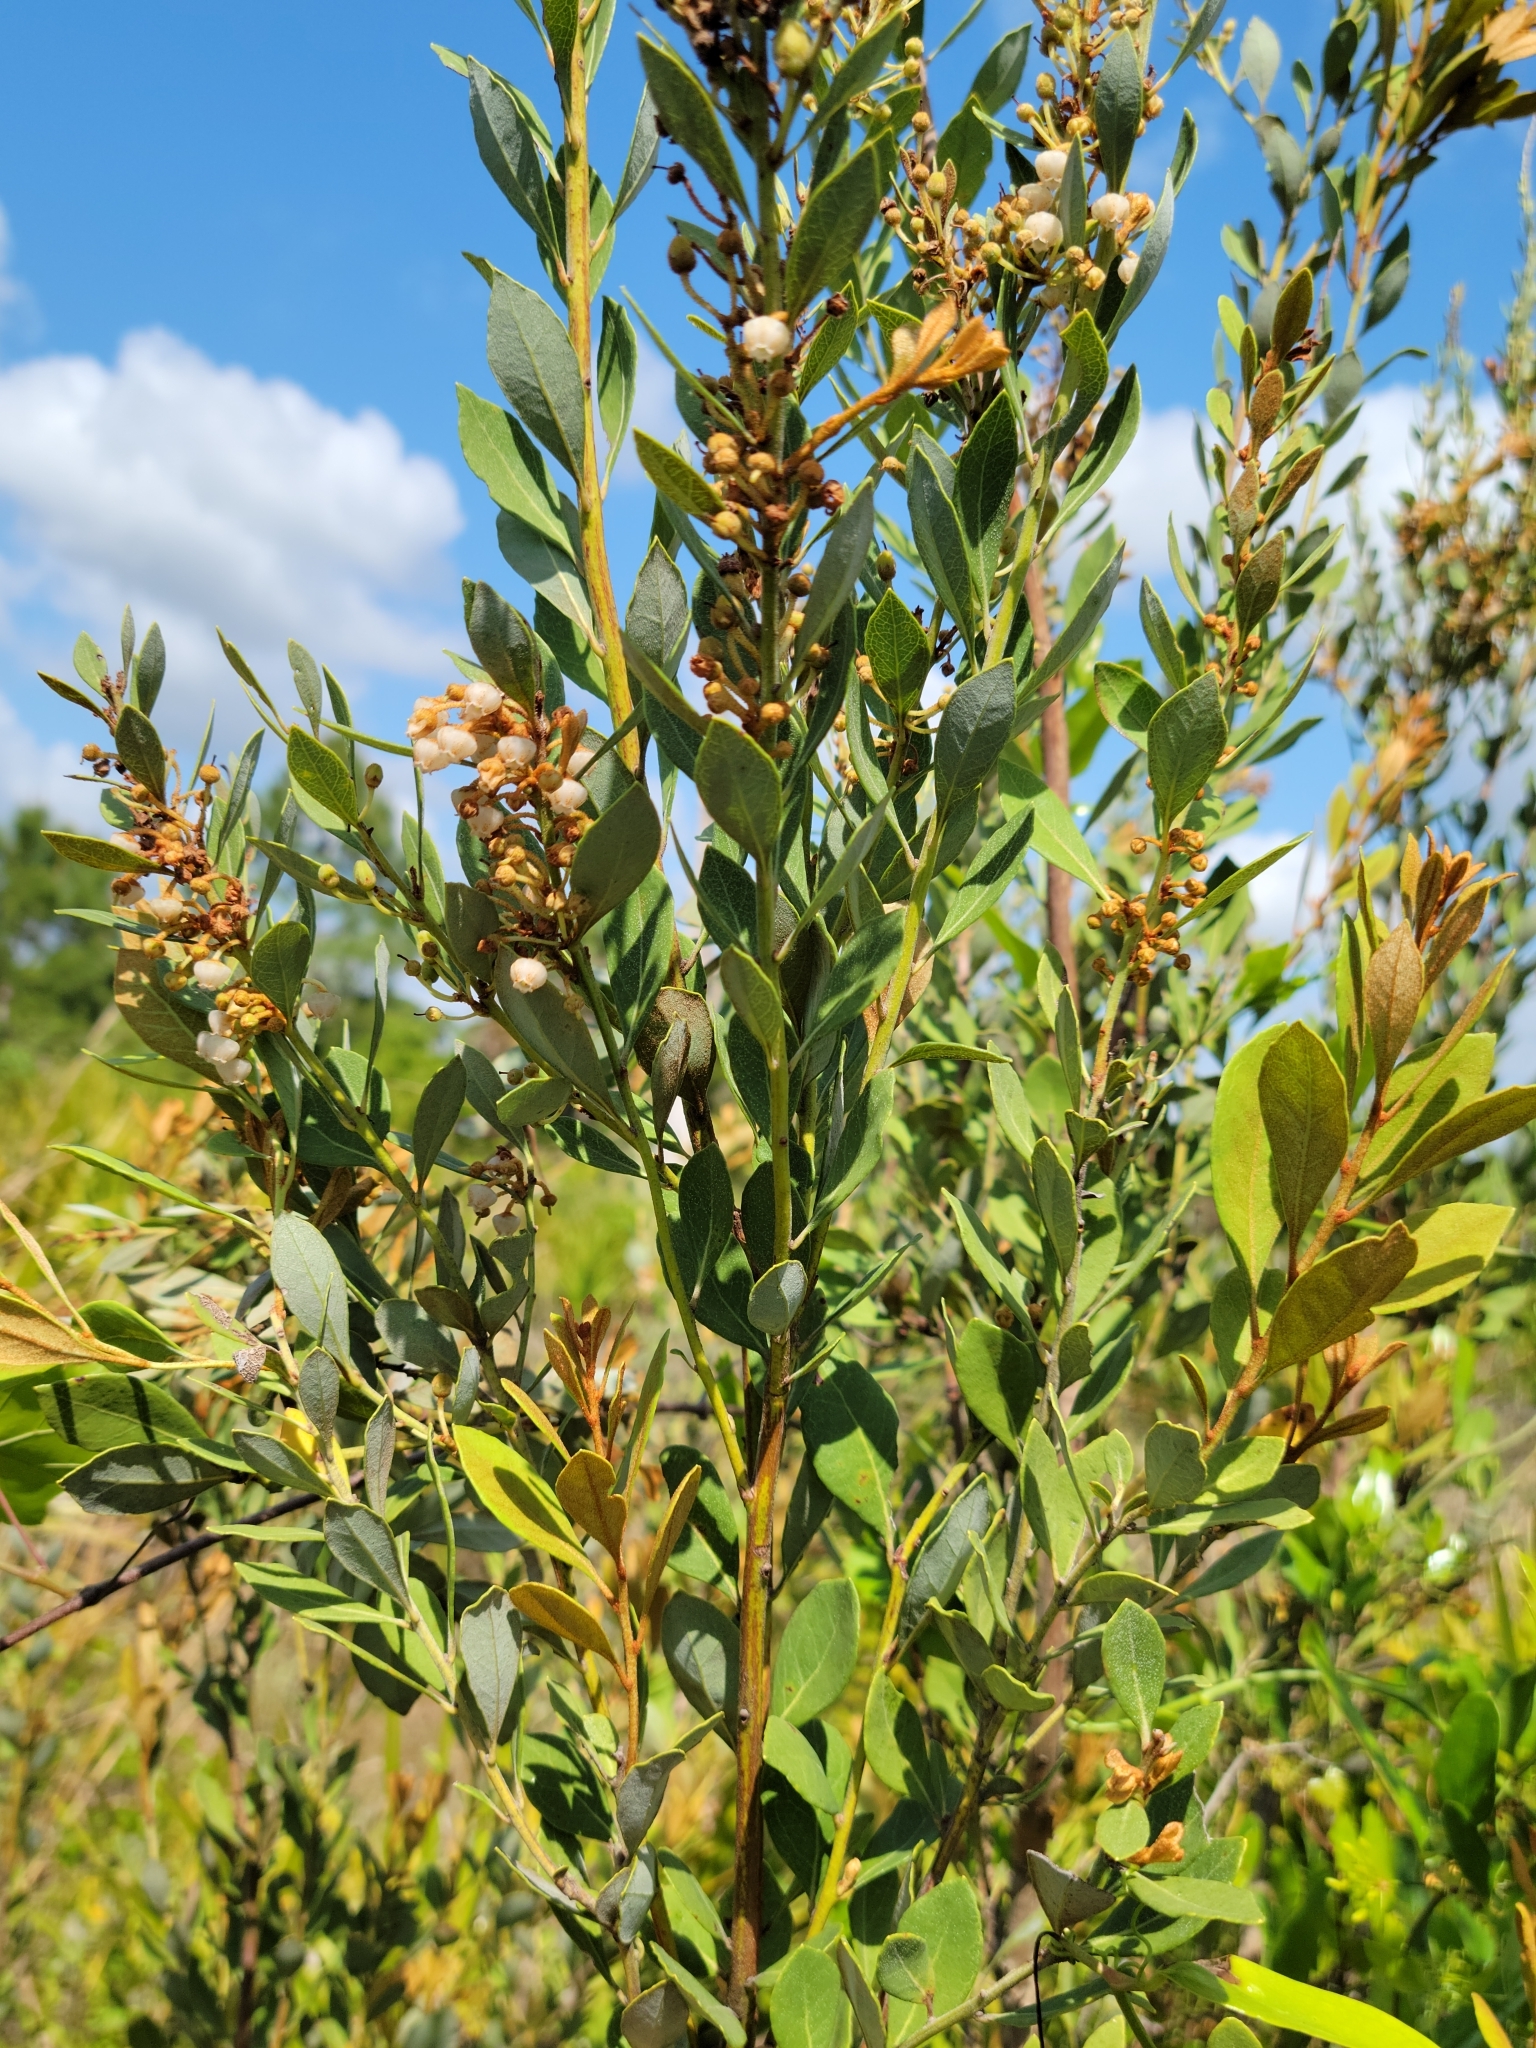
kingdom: Plantae
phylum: Tracheophyta
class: Magnoliopsida
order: Ericales
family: Ericaceae
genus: Lyonia
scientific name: Lyonia fruticosa
